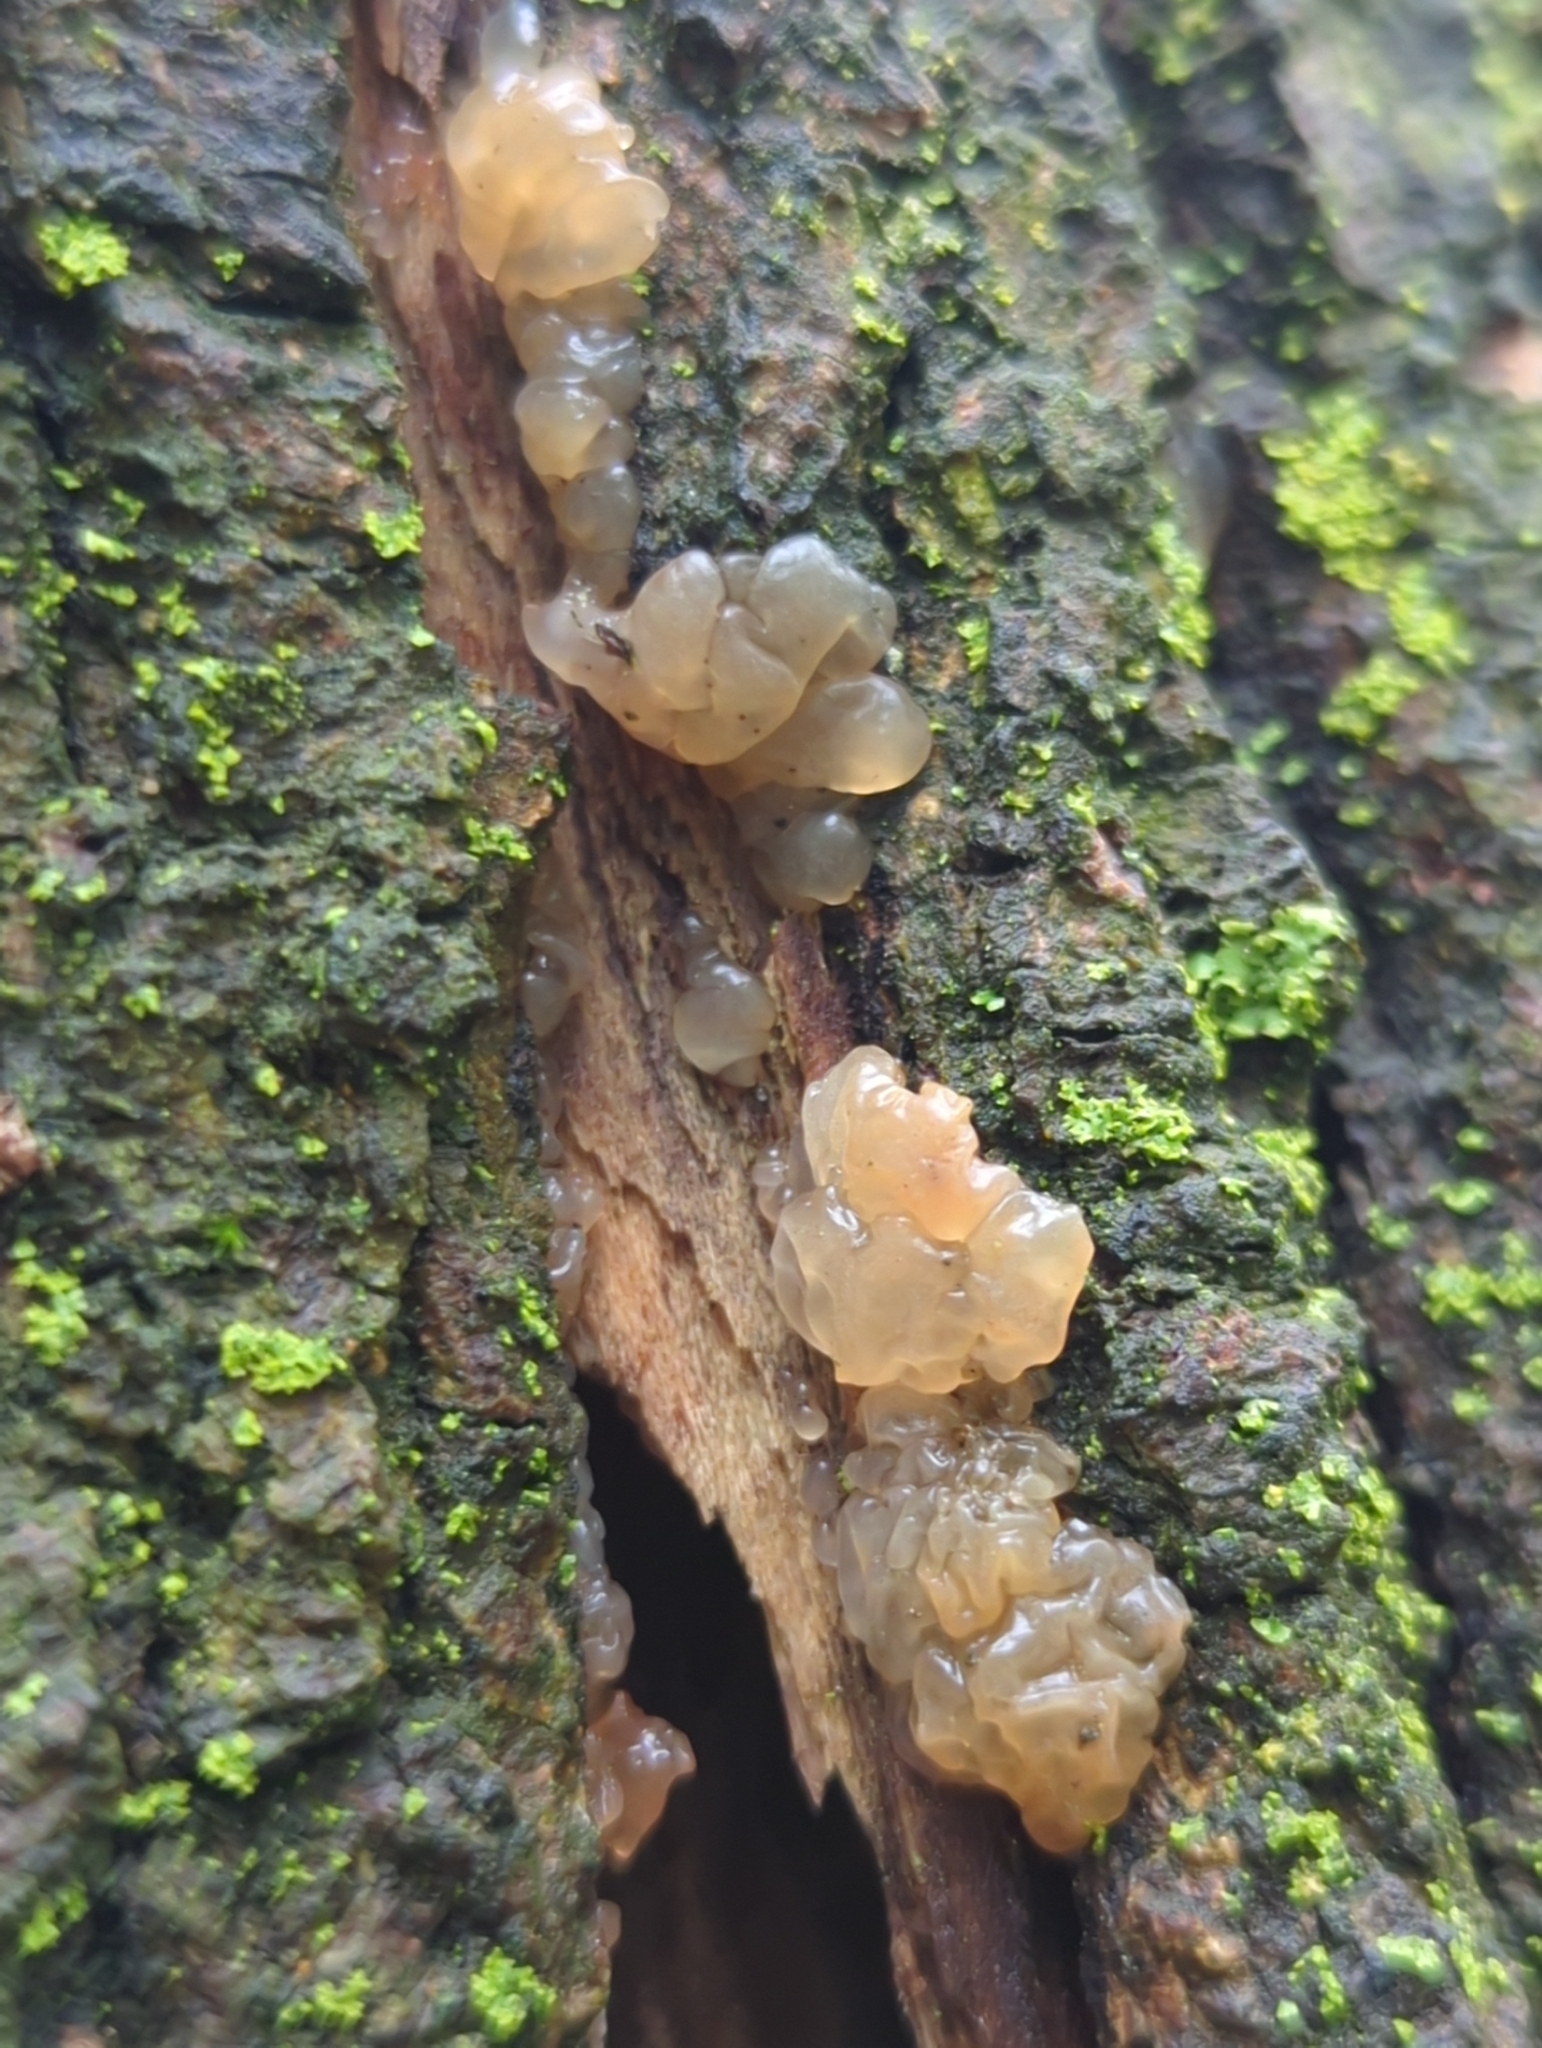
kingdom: Fungi
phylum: Basidiomycota
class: Agaricomycetes
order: Auriculariales
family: Hyaloriaceae
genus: Myxarium
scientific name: Myxarium nucleatum
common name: Crystal brain fungus
